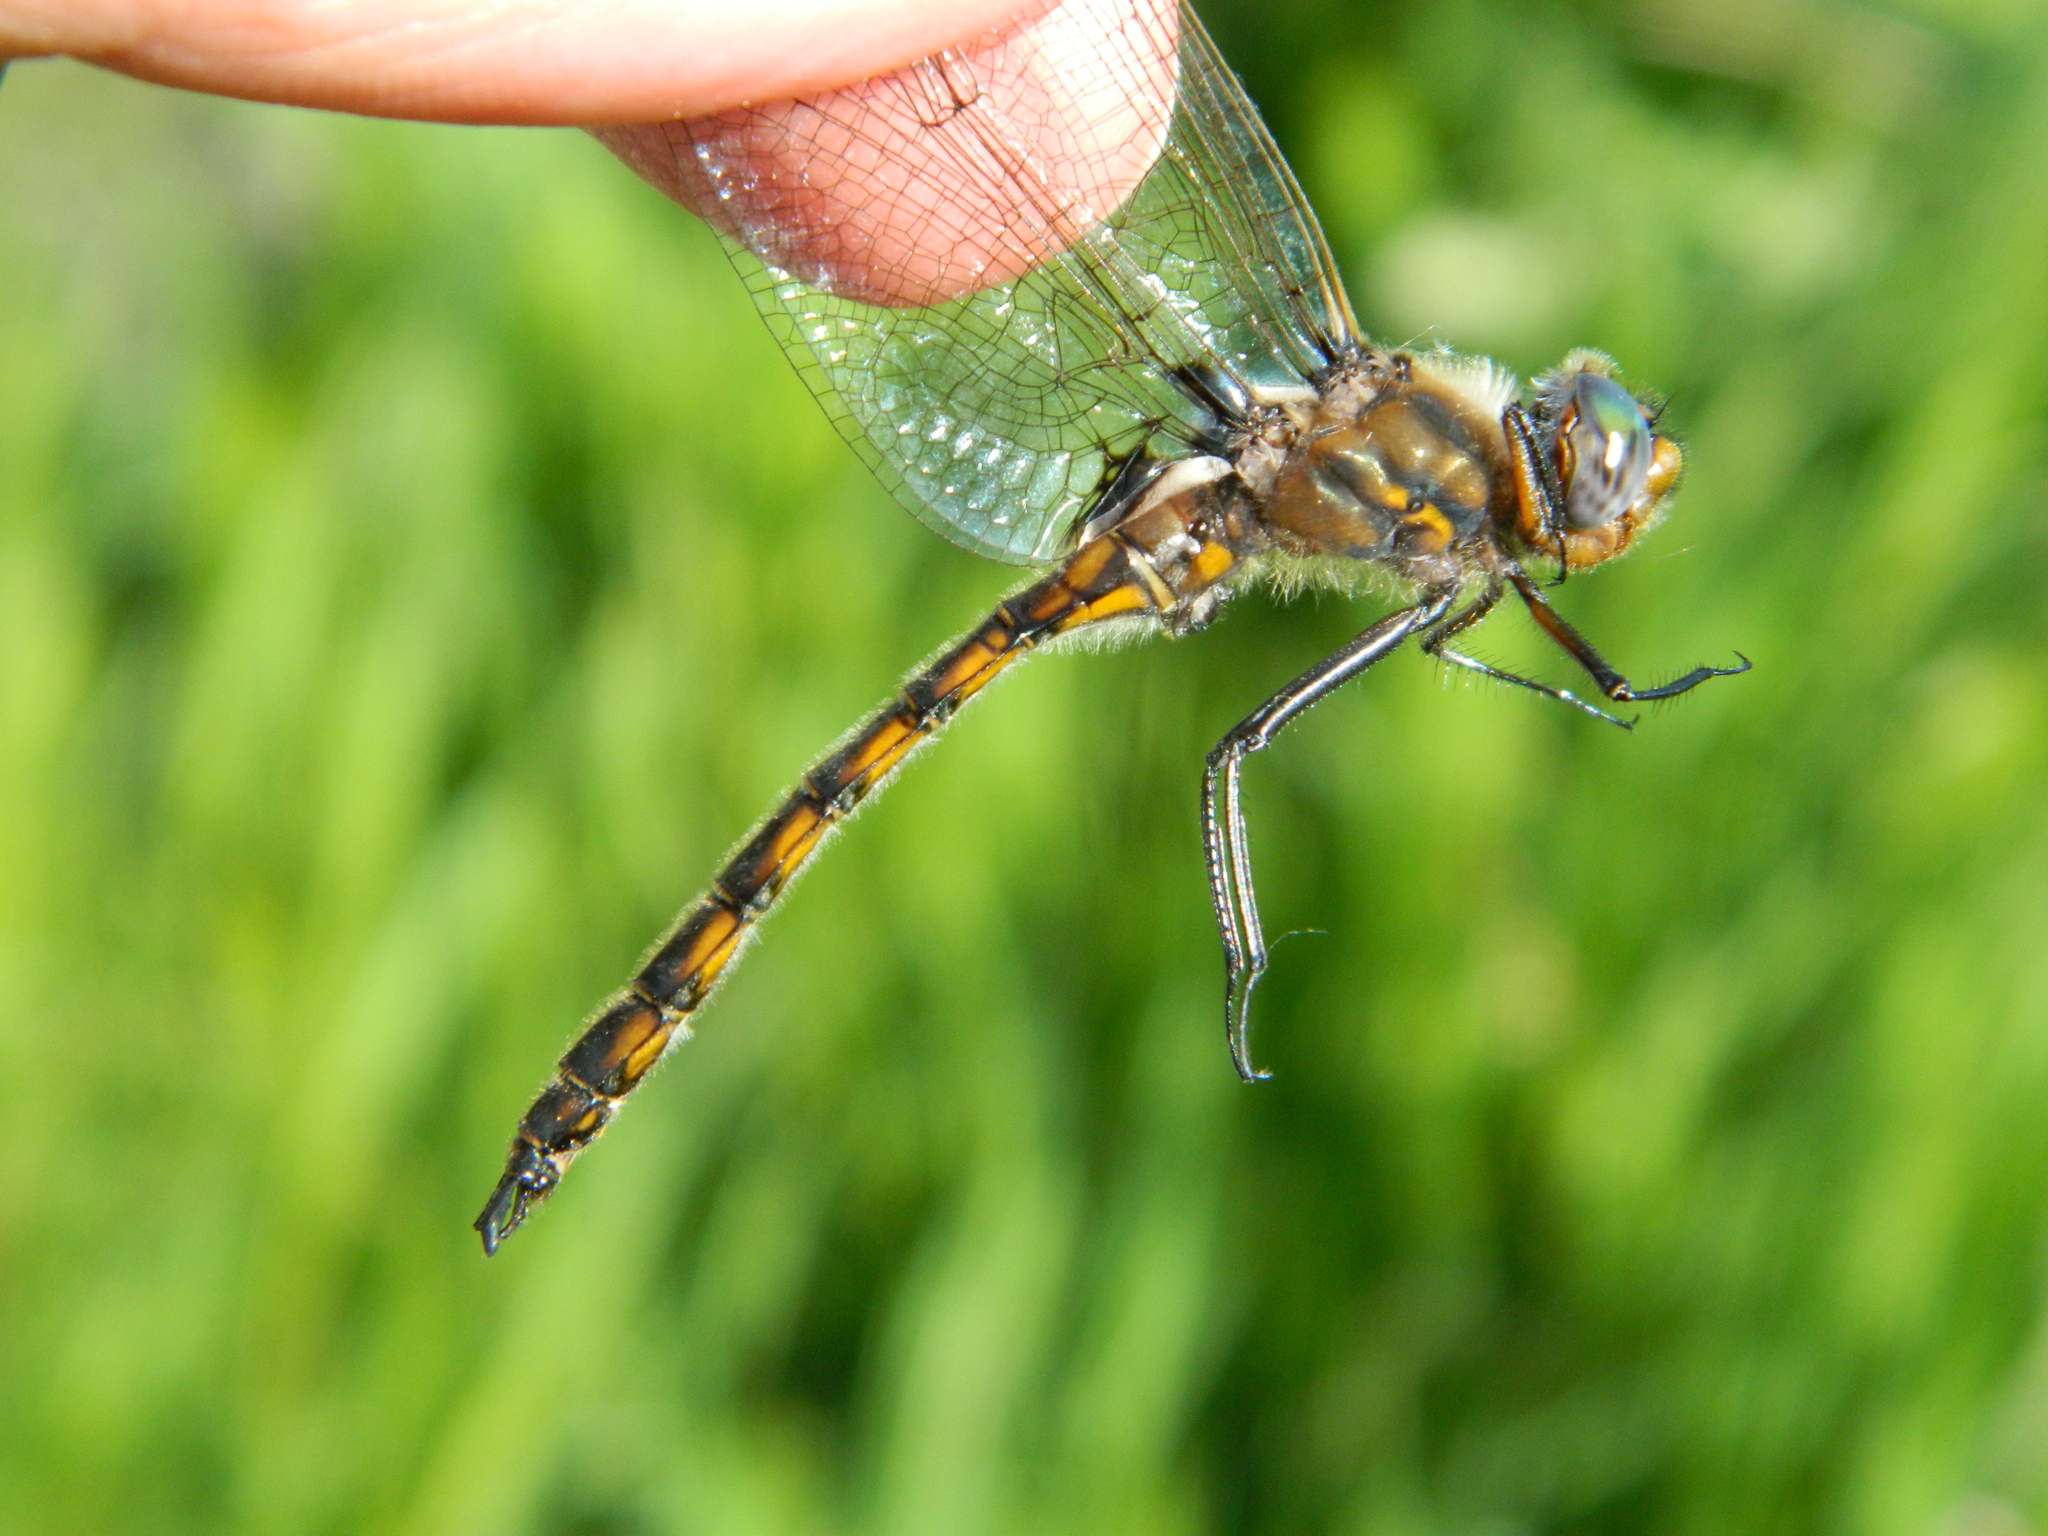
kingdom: Animalia
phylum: Arthropoda
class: Insecta
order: Odonata
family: Corduliidae
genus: Epitheca
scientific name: Epitheca canis
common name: Beaverpond baskettail
